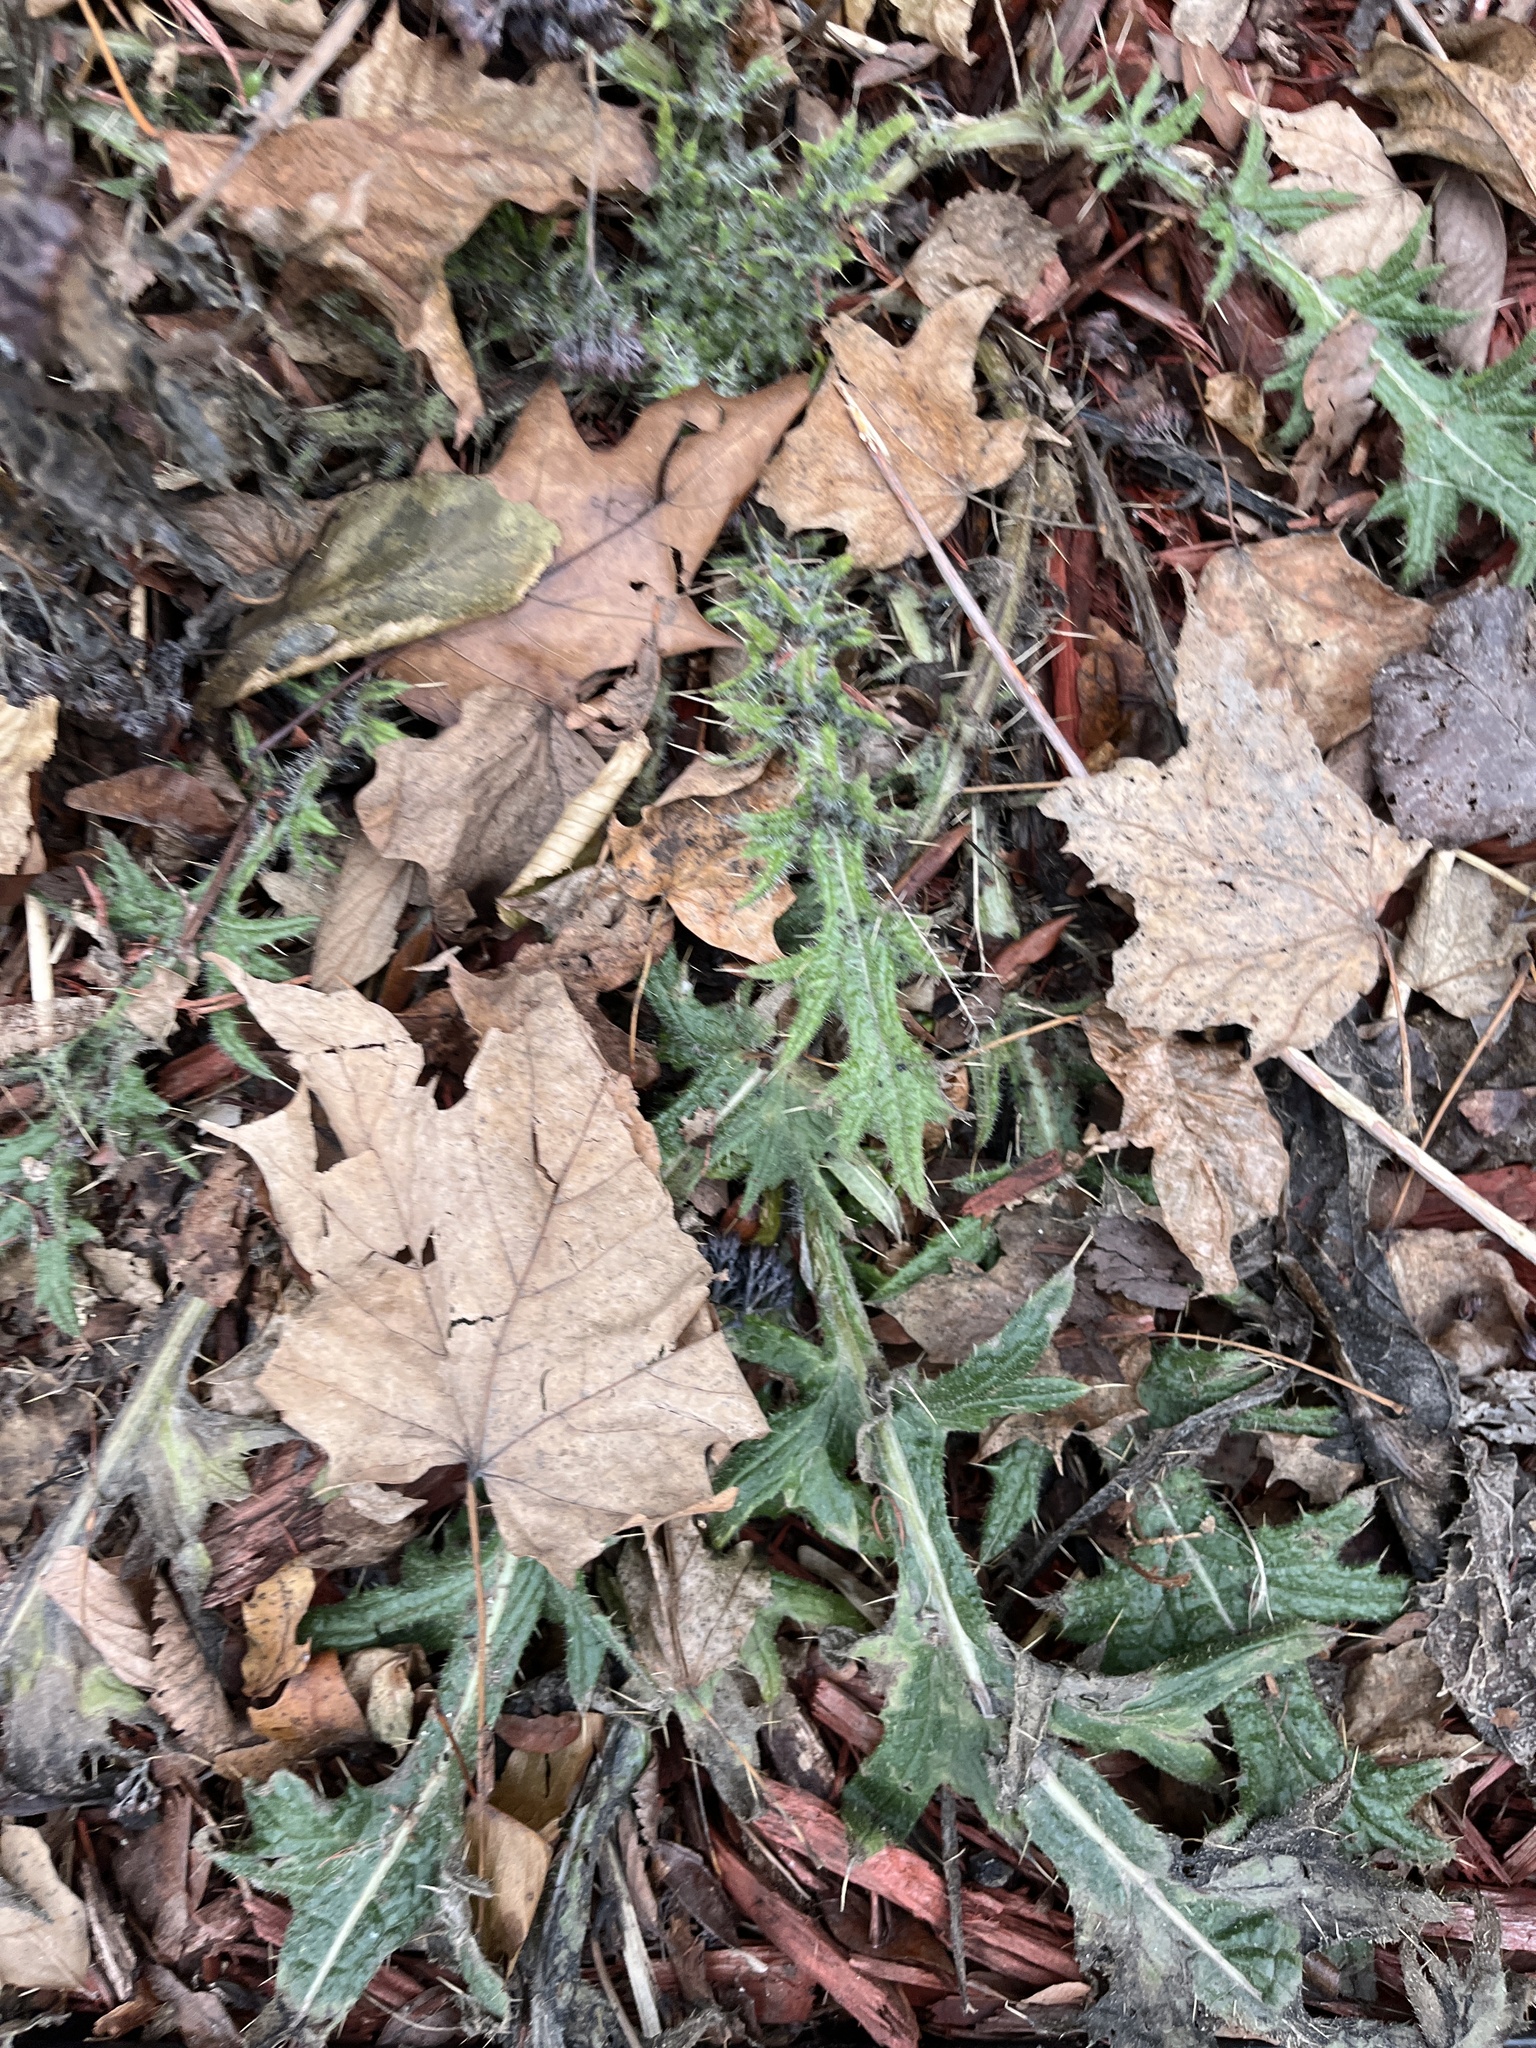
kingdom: Plantae
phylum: Tracheophyta
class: Magnoliopsida
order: Asterales
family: Asteraceae
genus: Cirsium
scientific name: Cirsium vulgare
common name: Bull thistle
